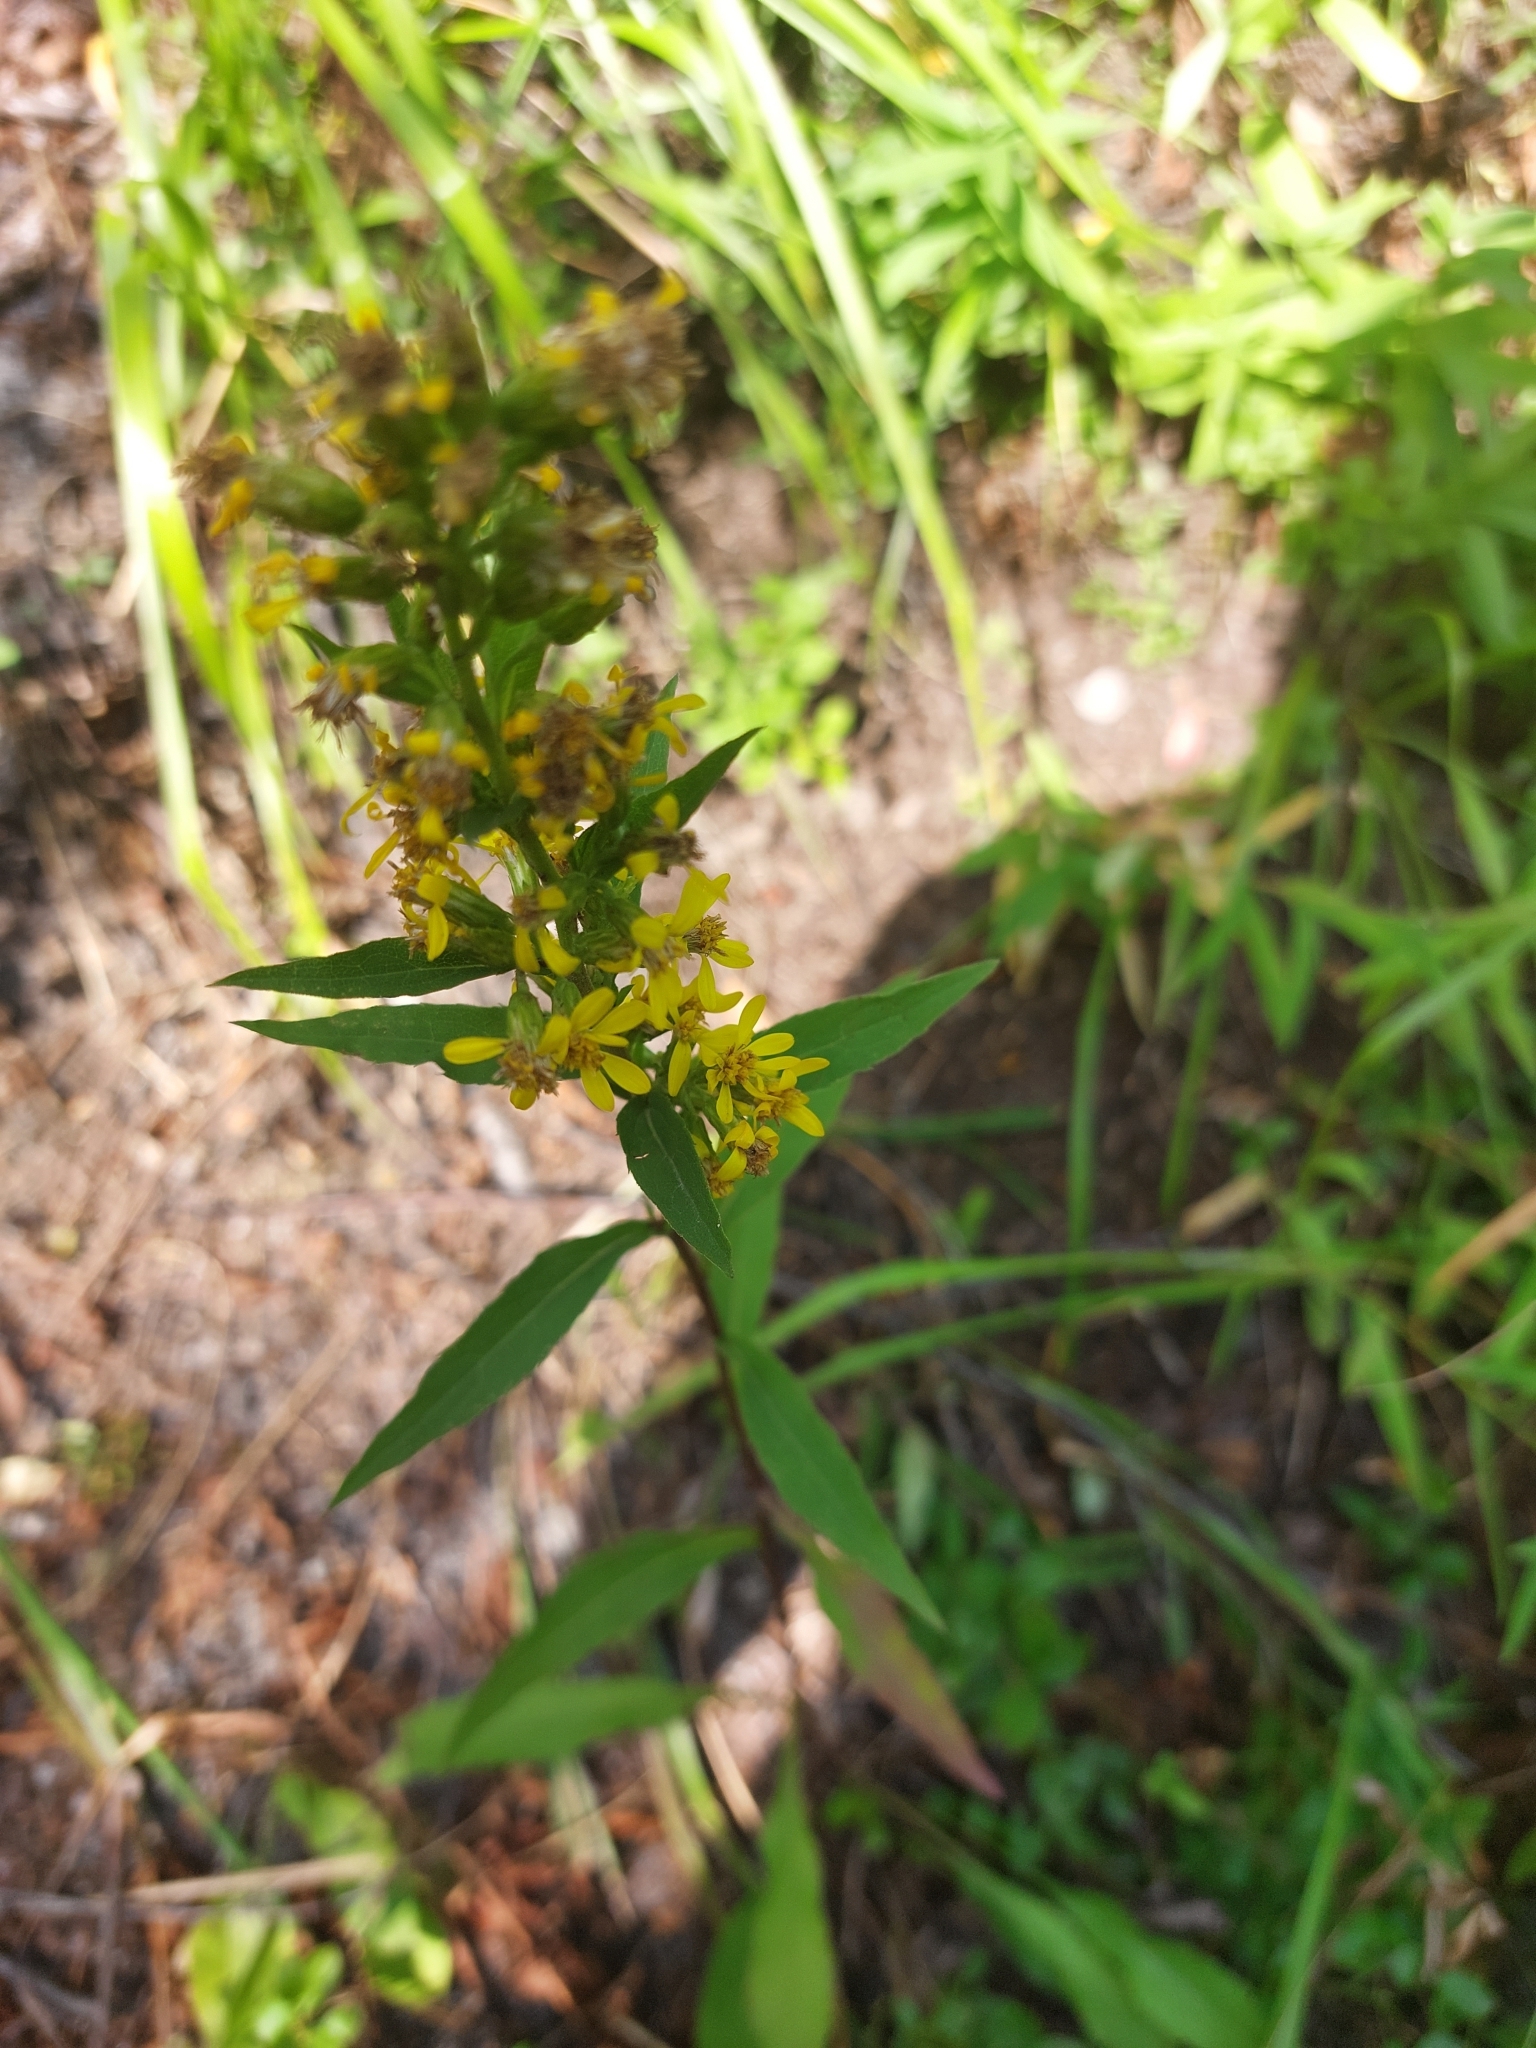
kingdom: Plantae
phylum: Tracheophyta
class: Magnoliopsida
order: Asterales
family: Asteraceae
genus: Solidago
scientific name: Solidago virgaurea
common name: Goldenrod
